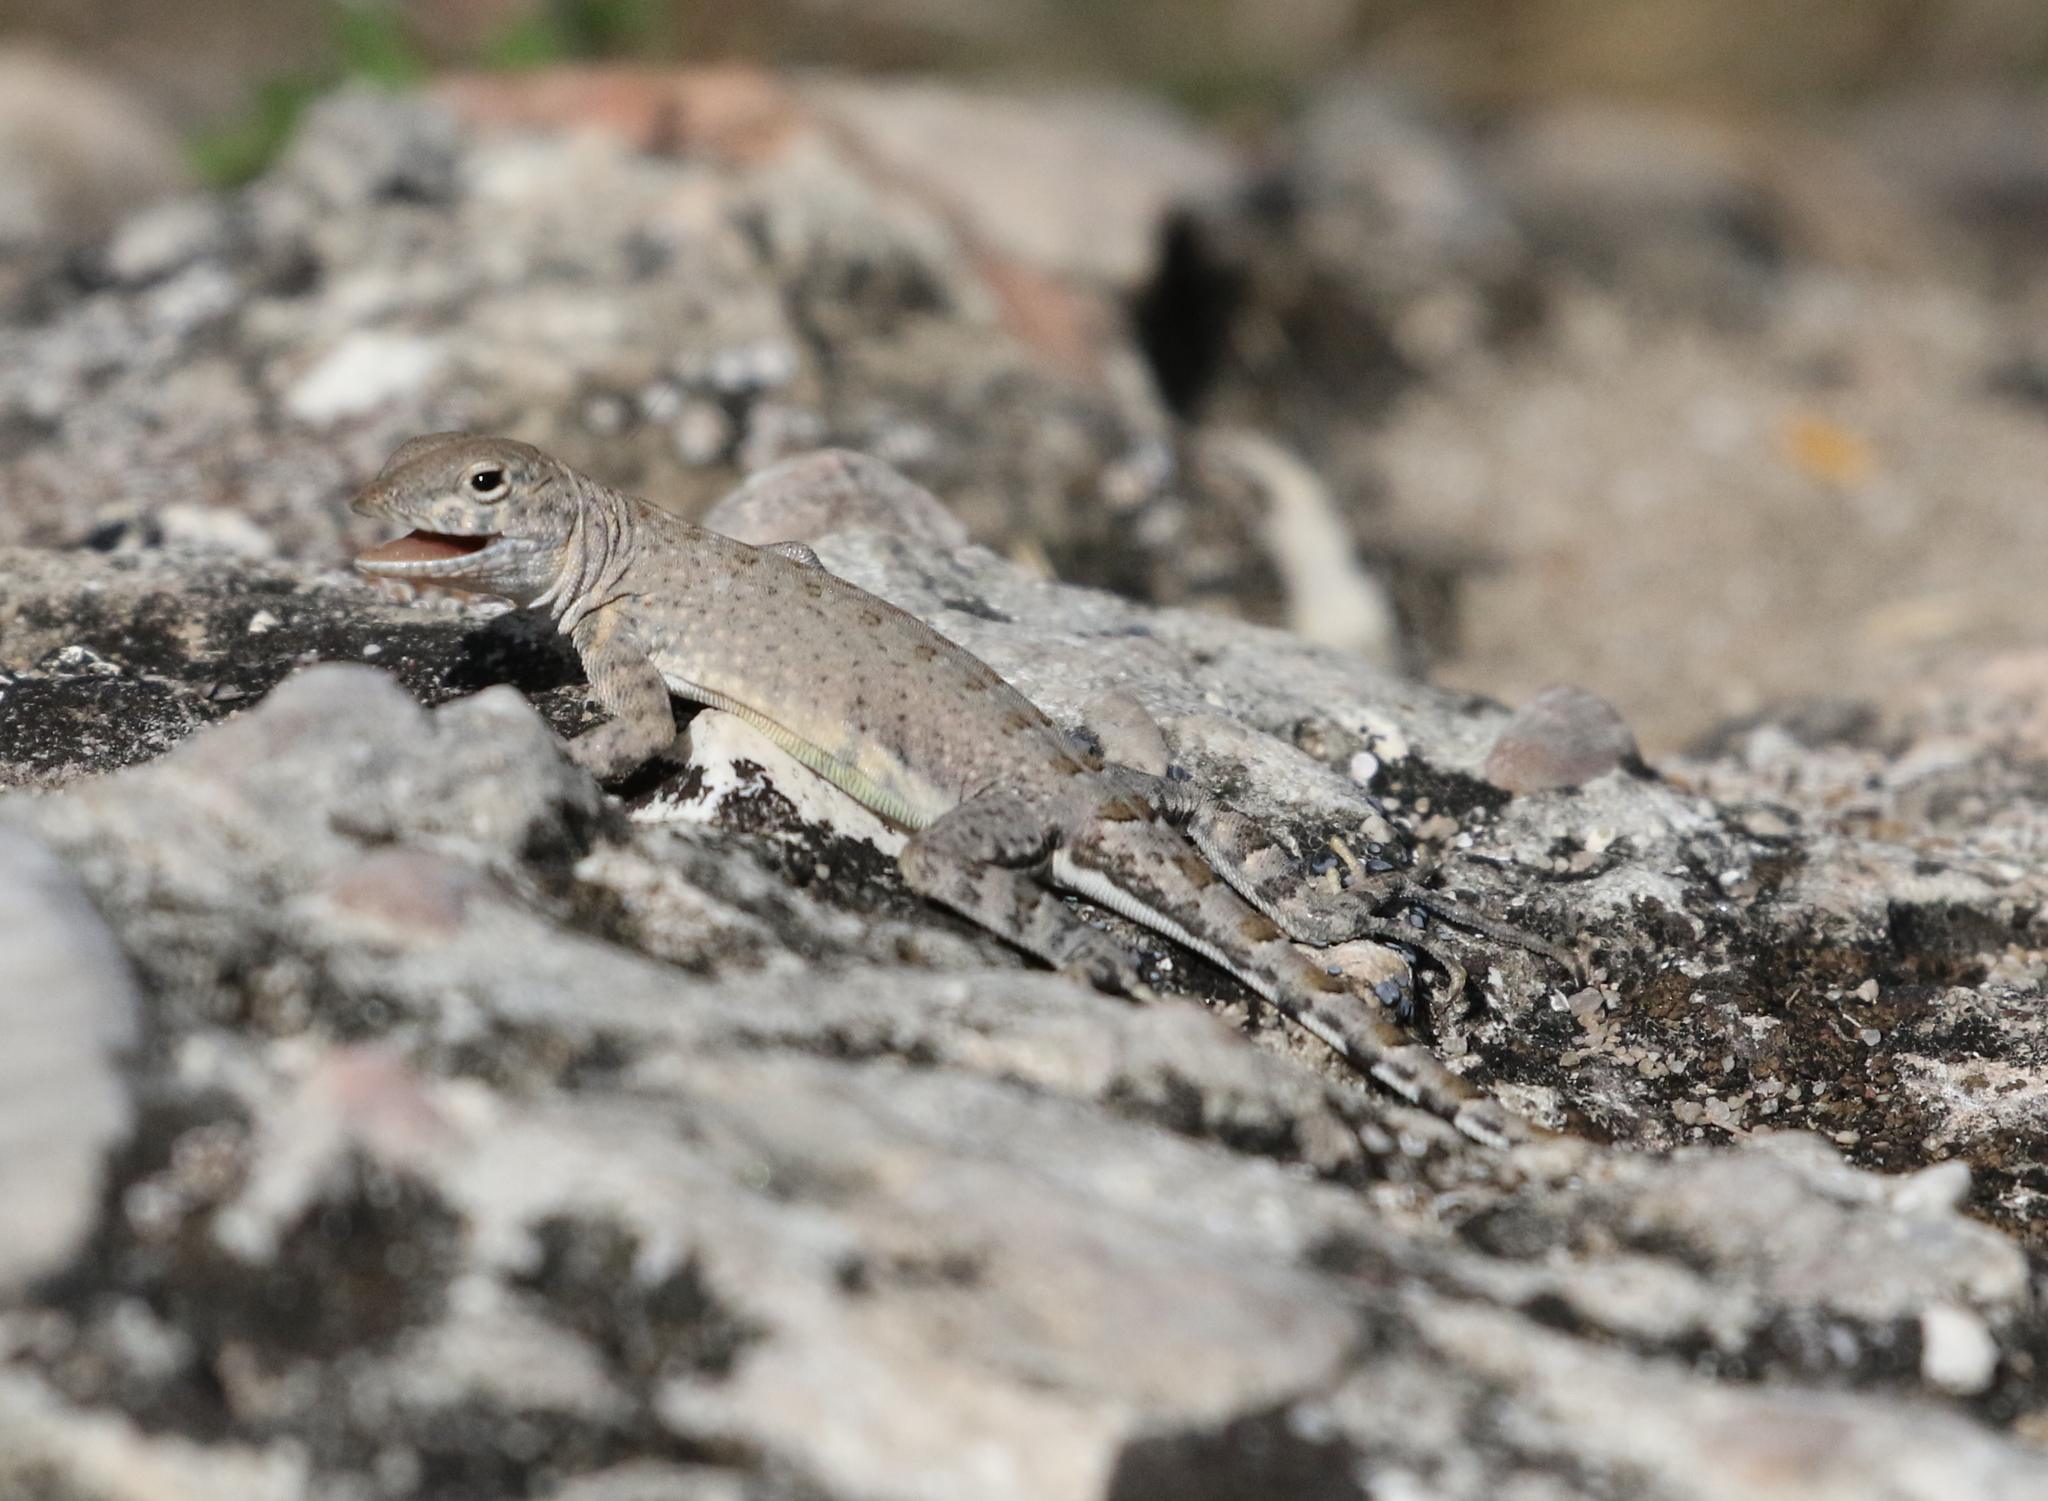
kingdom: Animalia
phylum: Chordata
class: Squamata
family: Phrynosomatidae
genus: Cophosaurus
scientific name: Cophosaurus texanus
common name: Greater earless lizard
